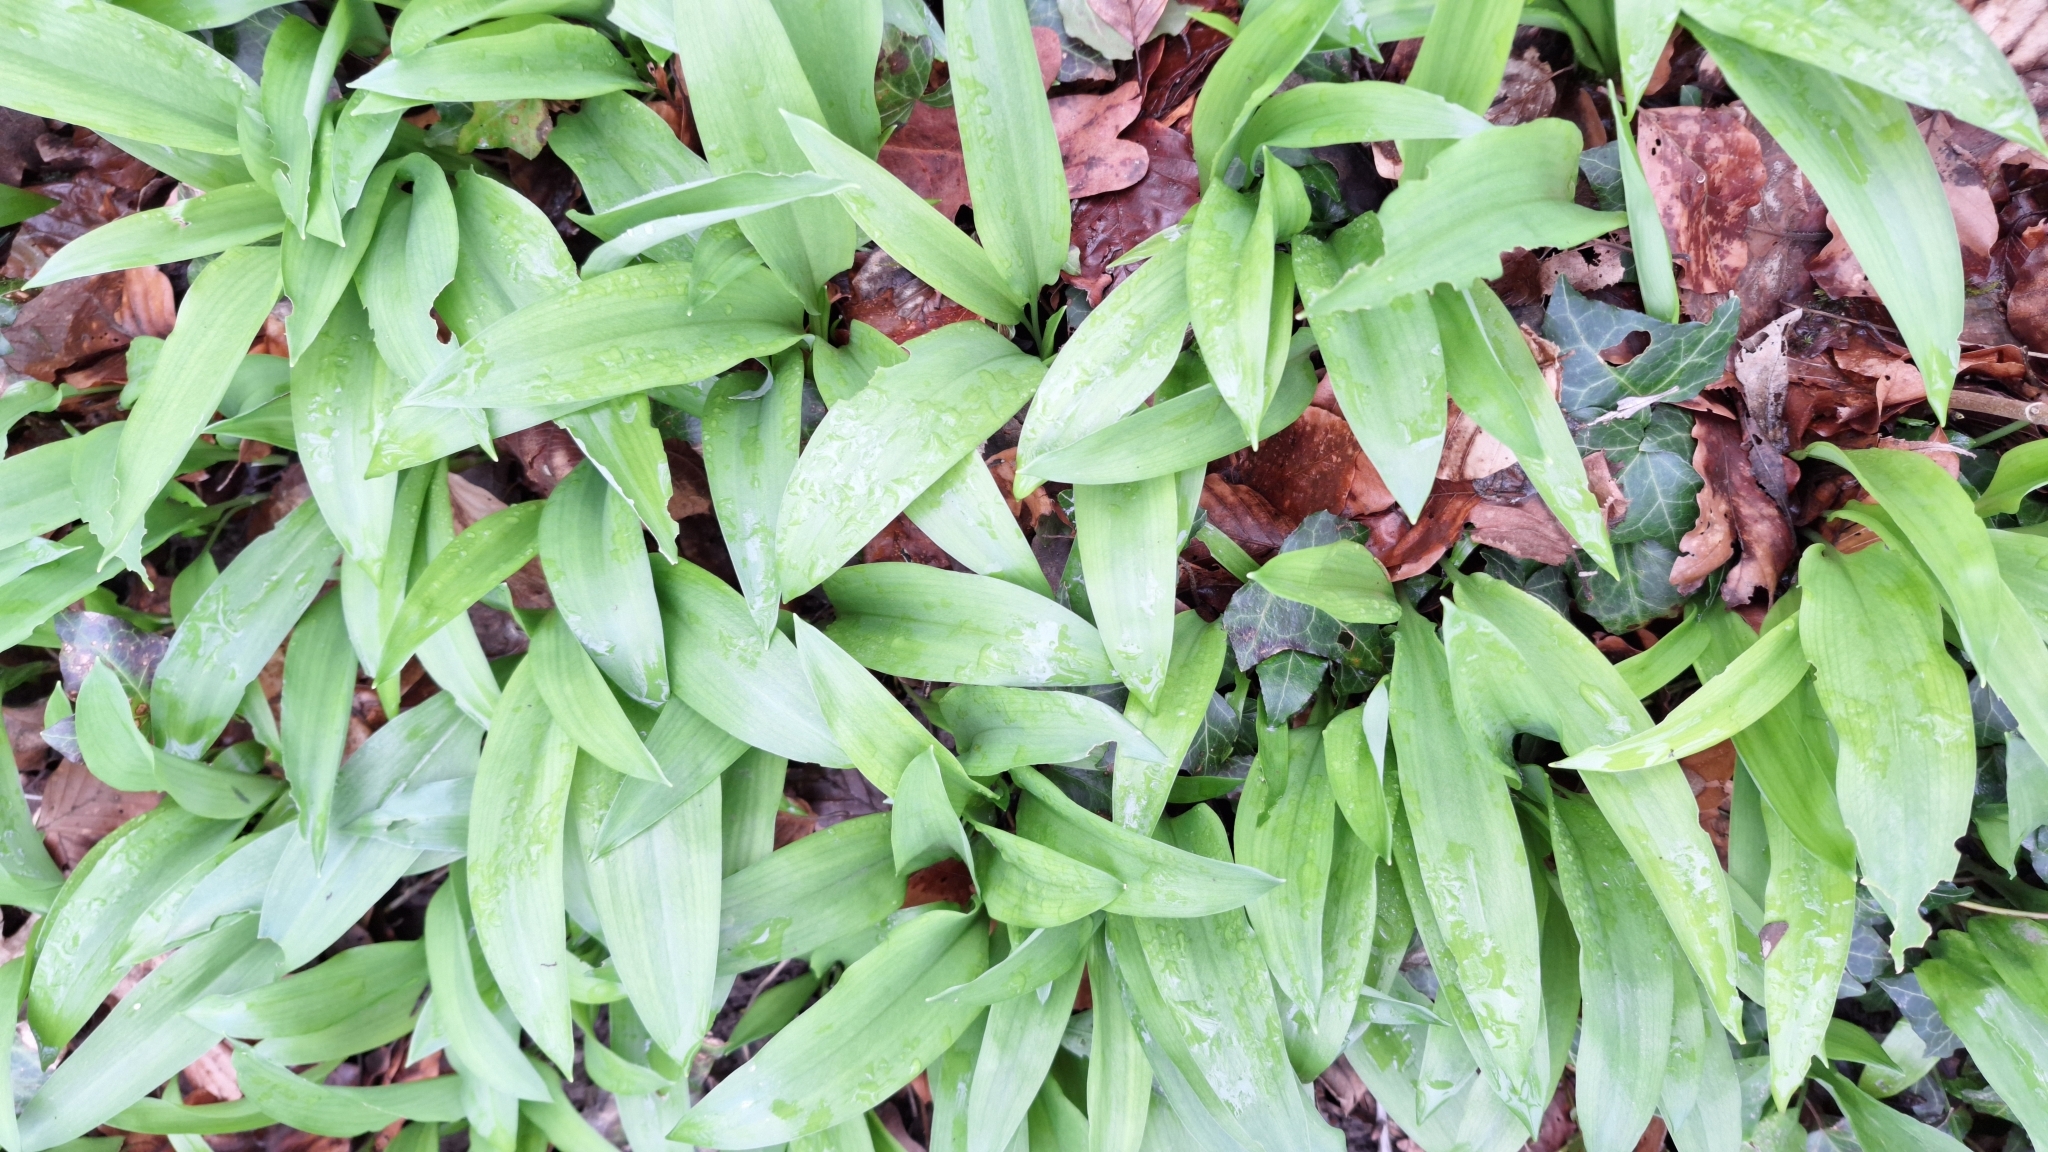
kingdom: Plantae
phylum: Tracheophyta
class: Liliopsida
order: Asparagales
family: Amaryllidaceae
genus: Allium
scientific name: Allium ursinum
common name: Ramsons
